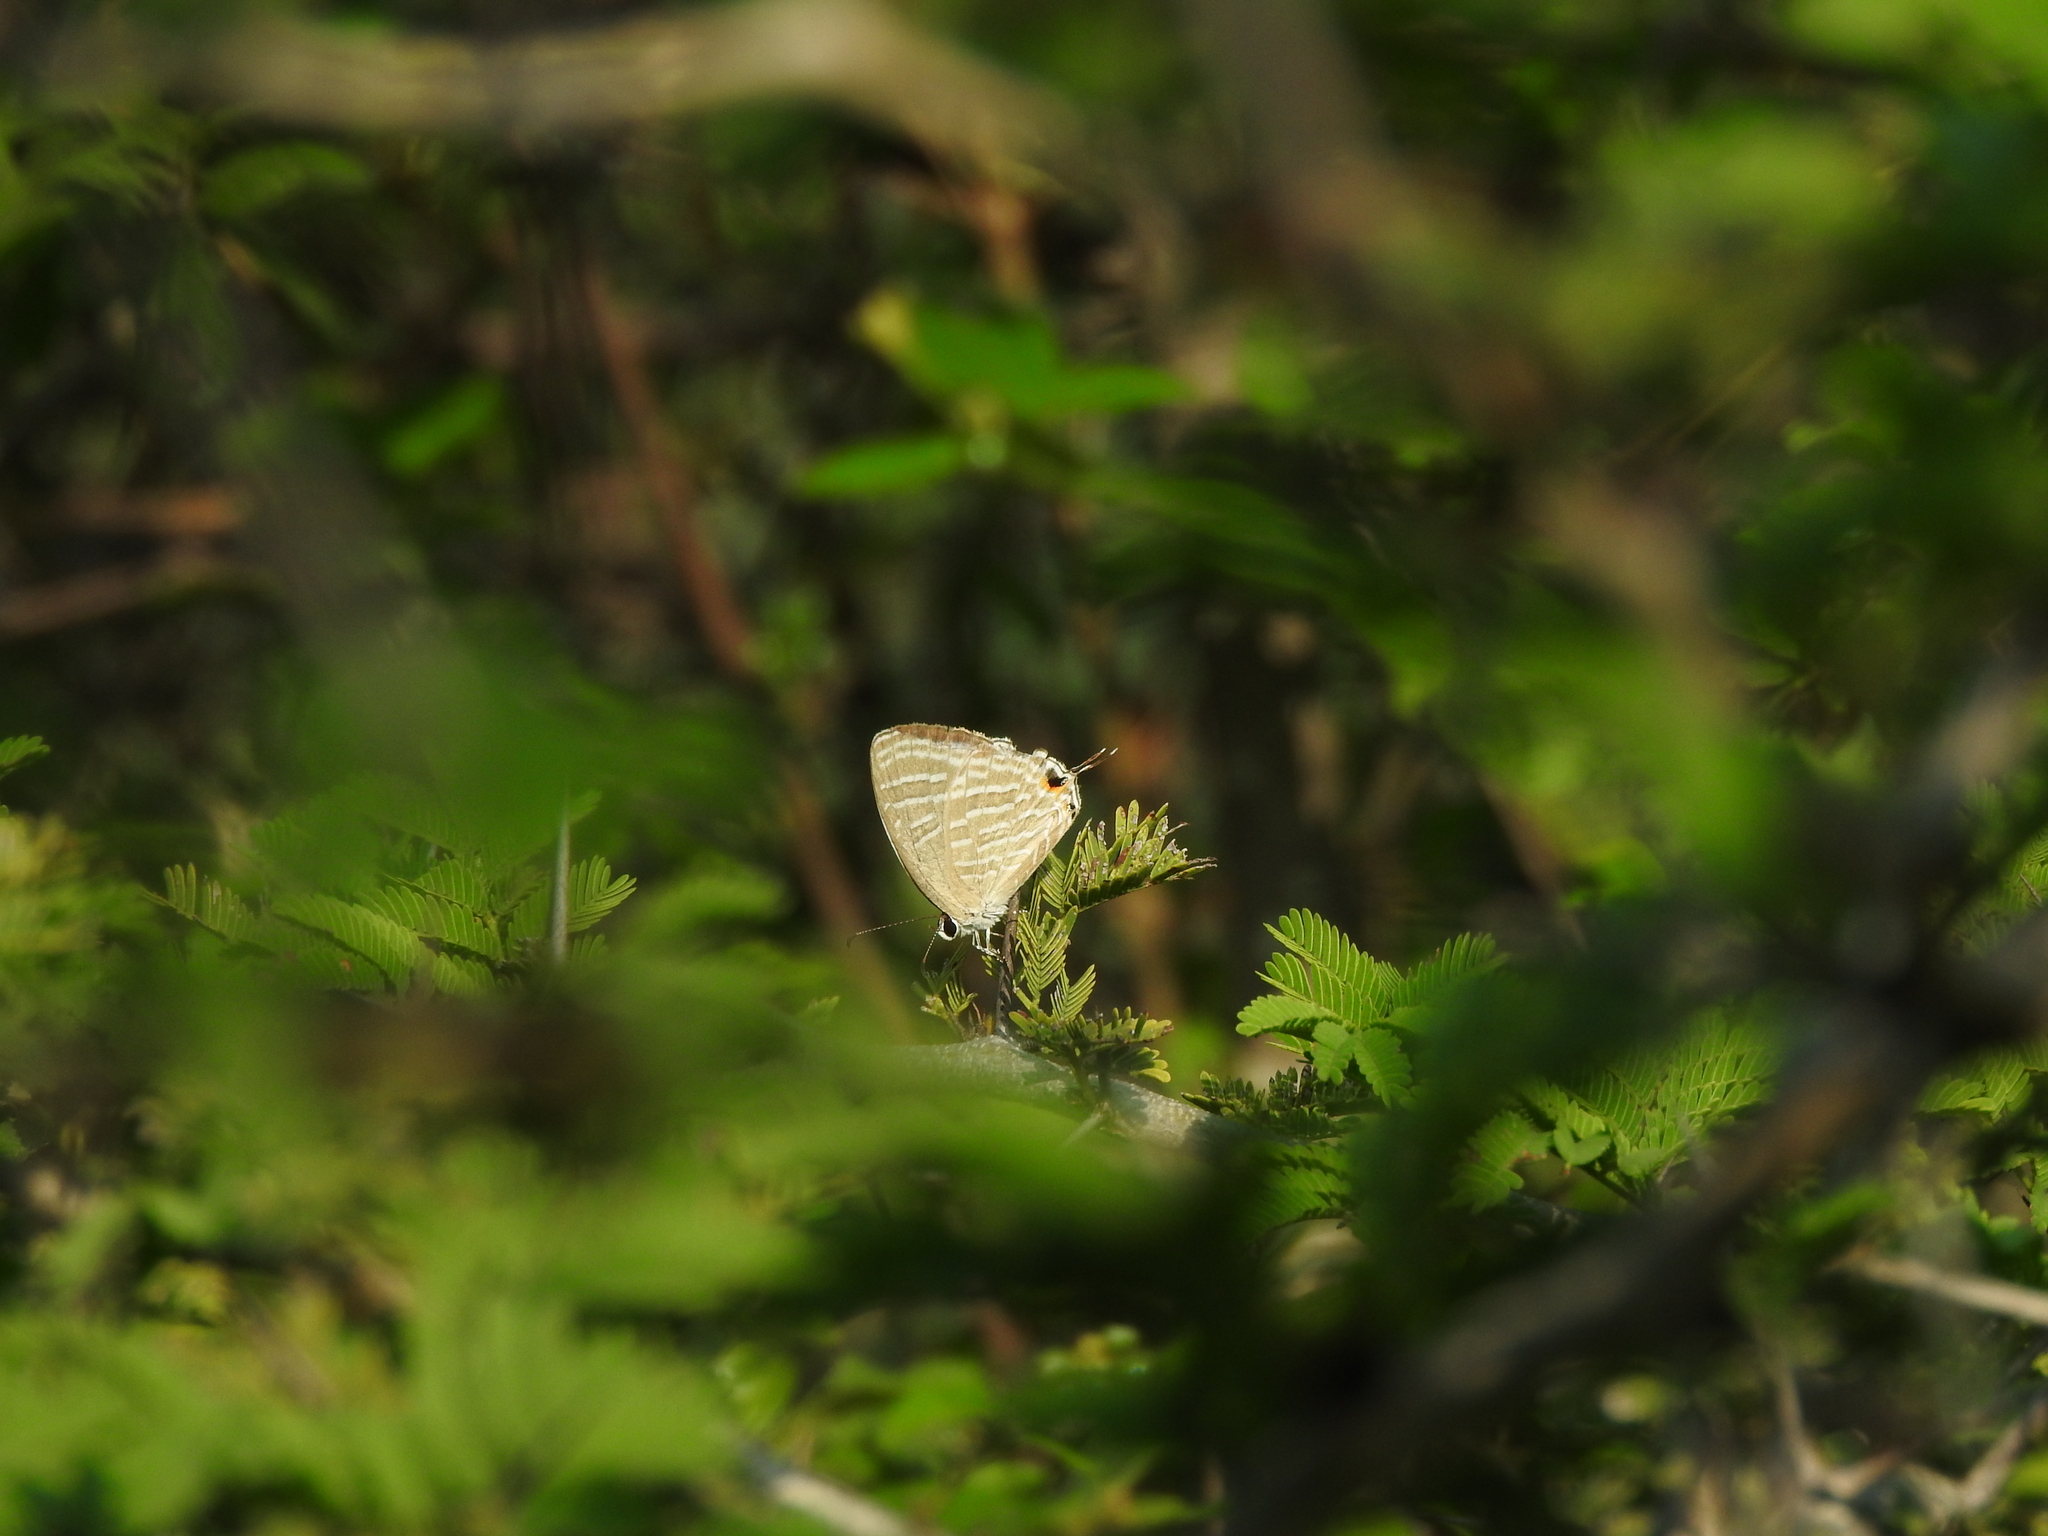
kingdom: Animalia
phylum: Arthropoda
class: Insecta
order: Lepidoptera
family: Lycaenidae
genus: Jamides
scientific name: Jamides celeno
